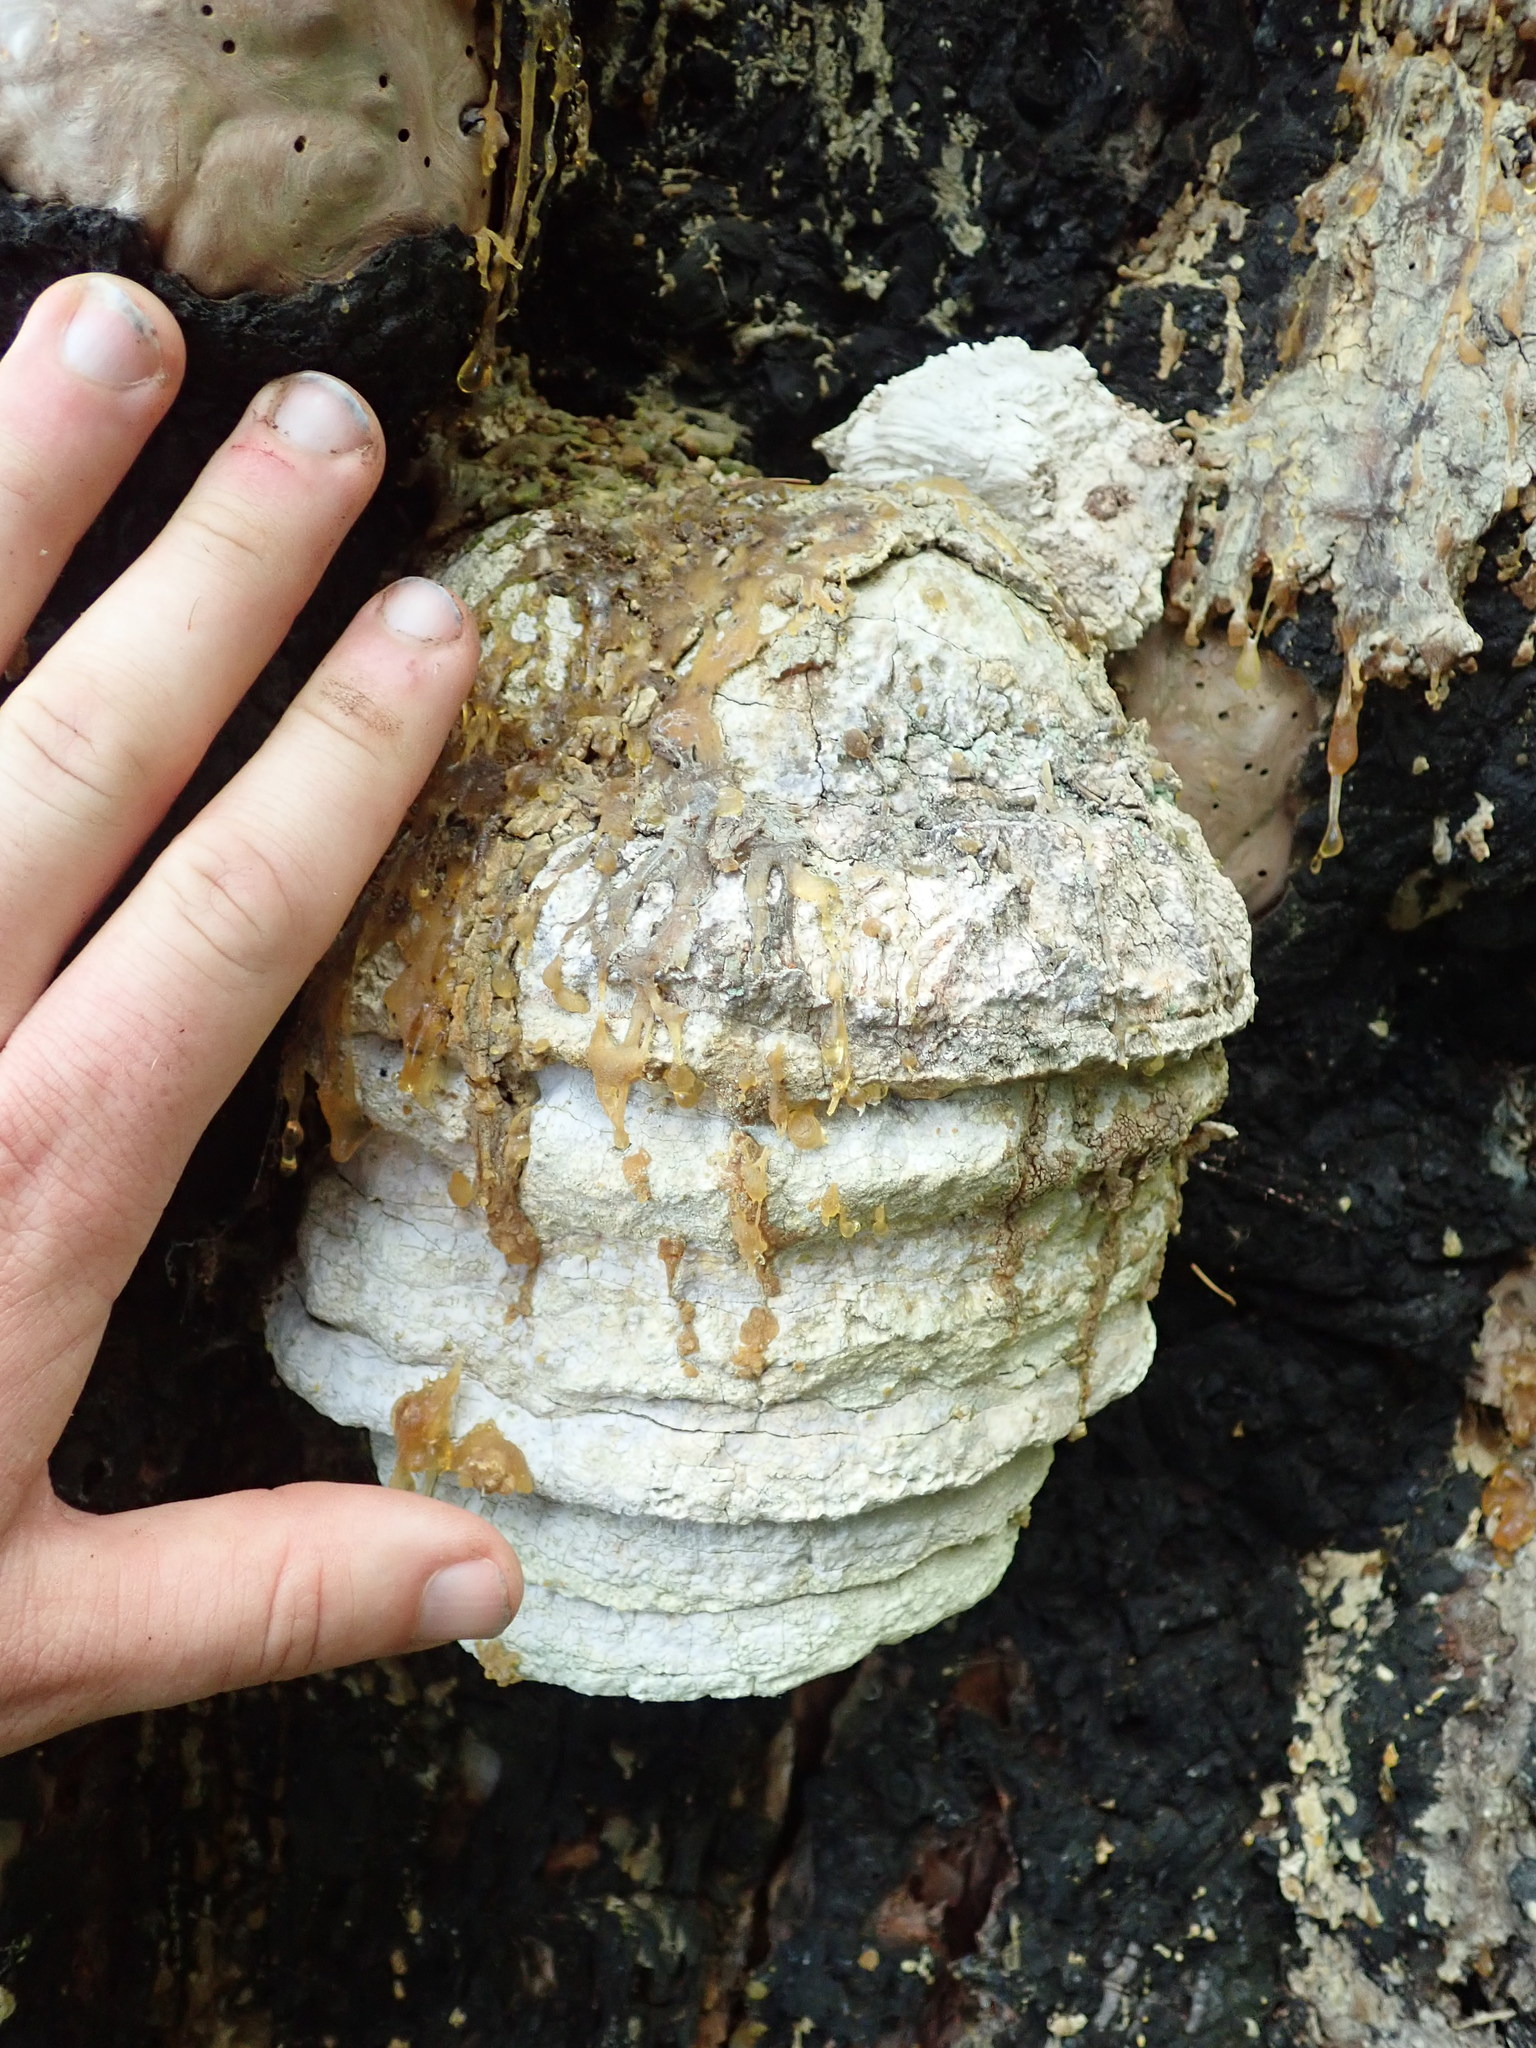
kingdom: Fungi
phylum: Basidiomycota
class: Agaricomycetes
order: Polyporales
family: Fomitopsidaceae
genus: Fomitopsis
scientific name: Fomitopsis officinalis
